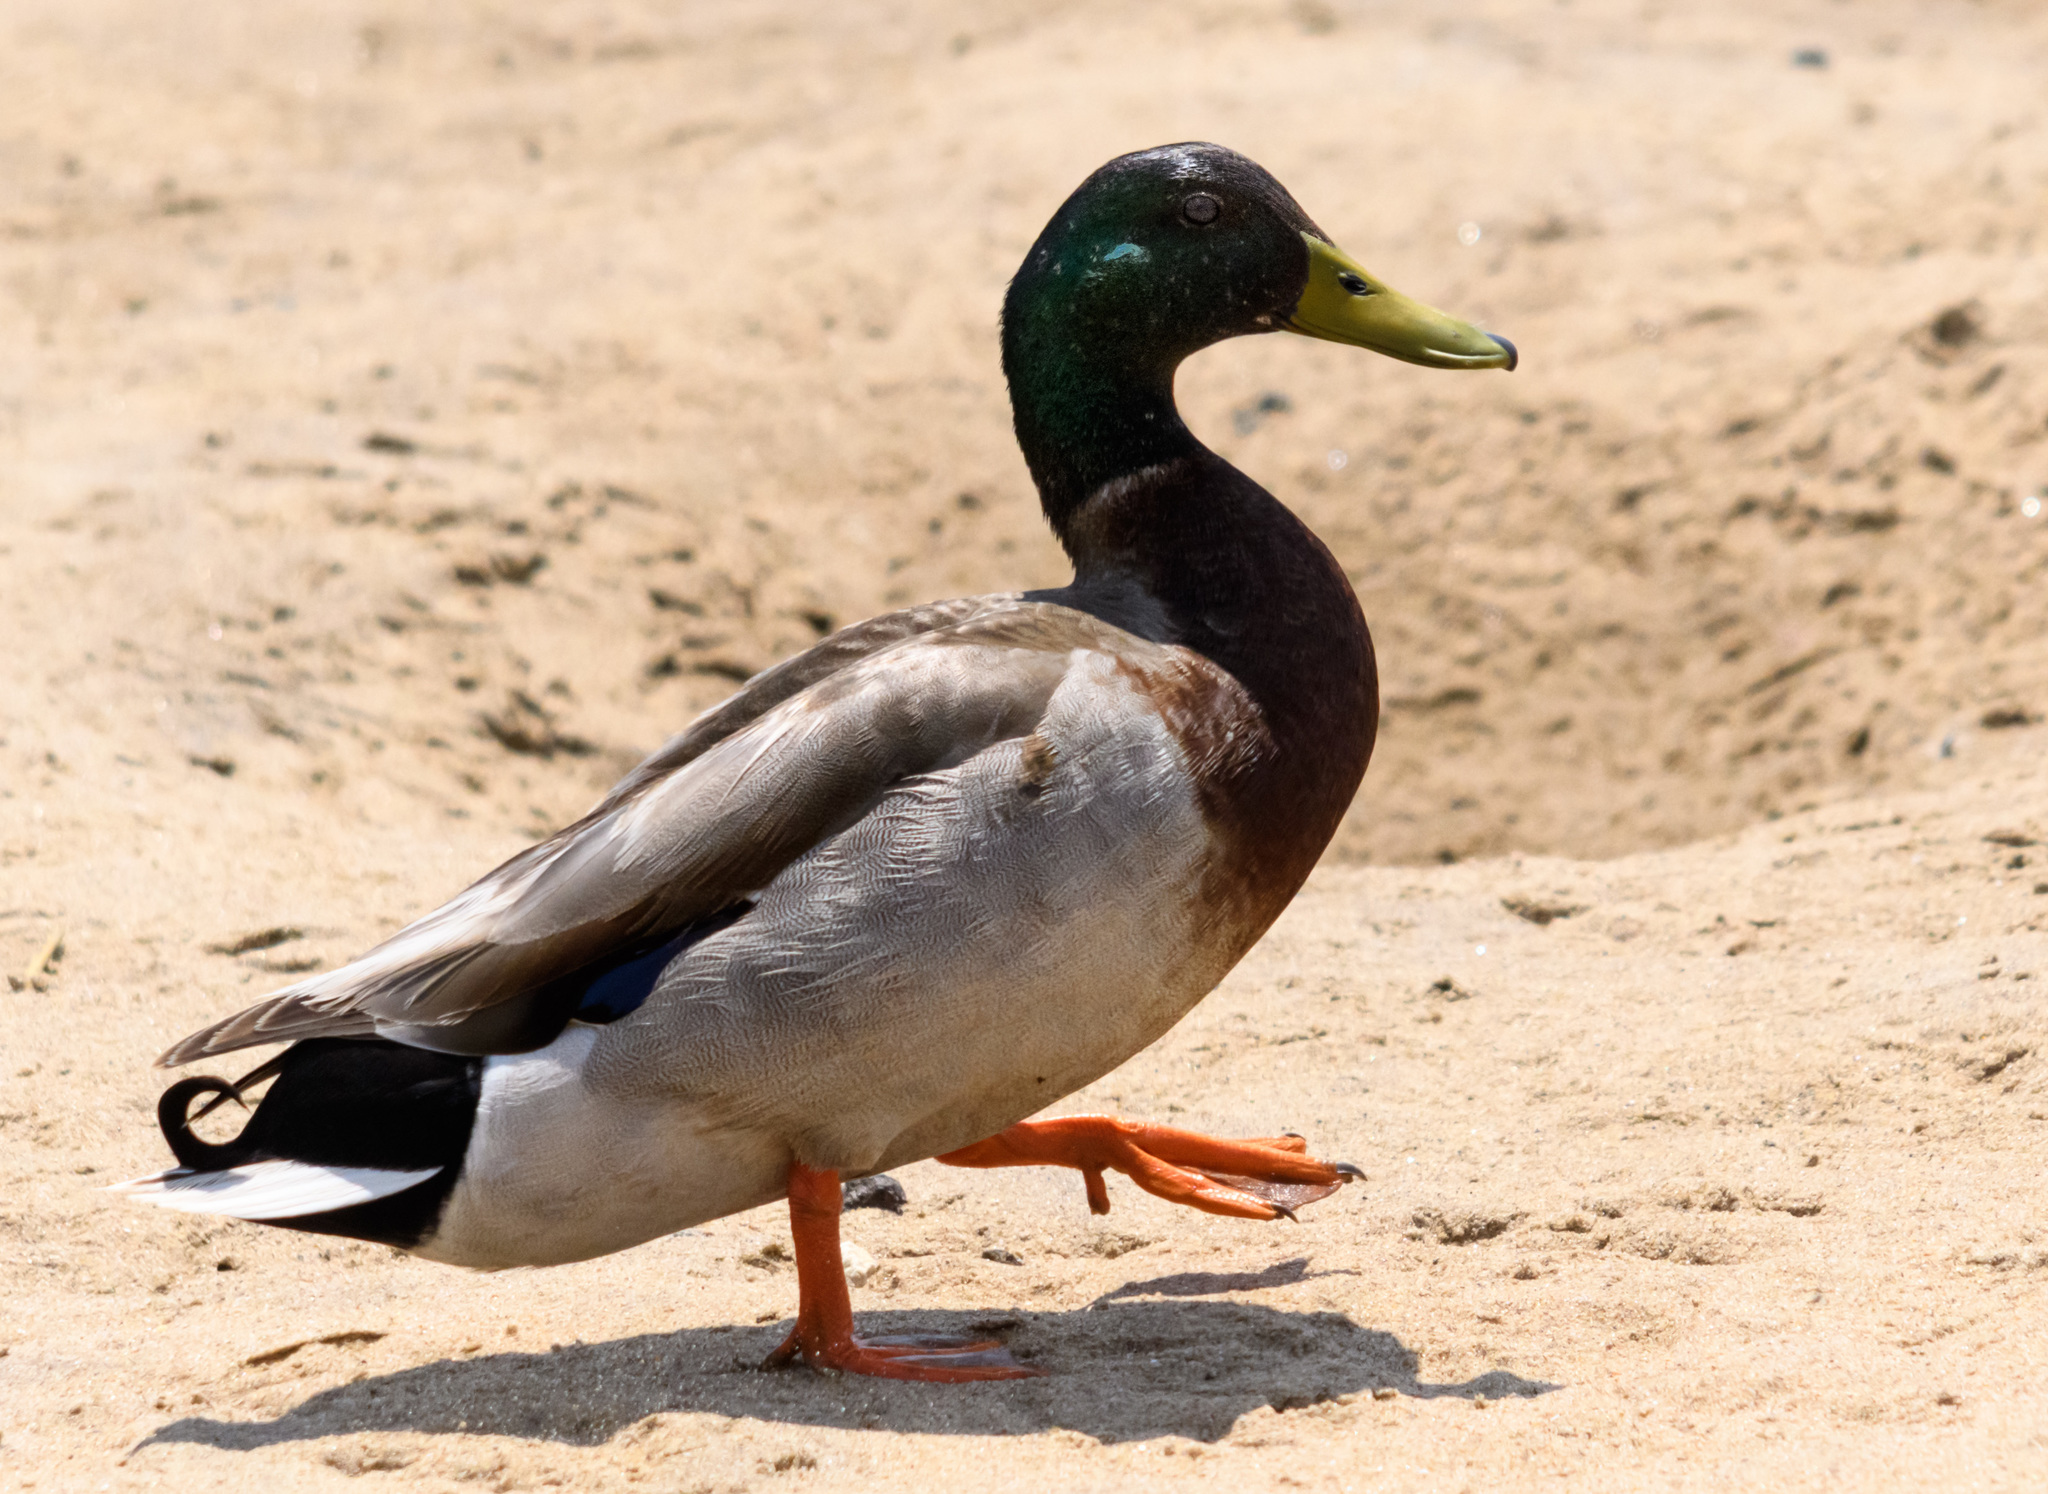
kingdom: Animalia
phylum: Chordata
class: Aves
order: Anseriformes
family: Anatidae
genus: Anas
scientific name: Anas platyrhynchos
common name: Mallard
